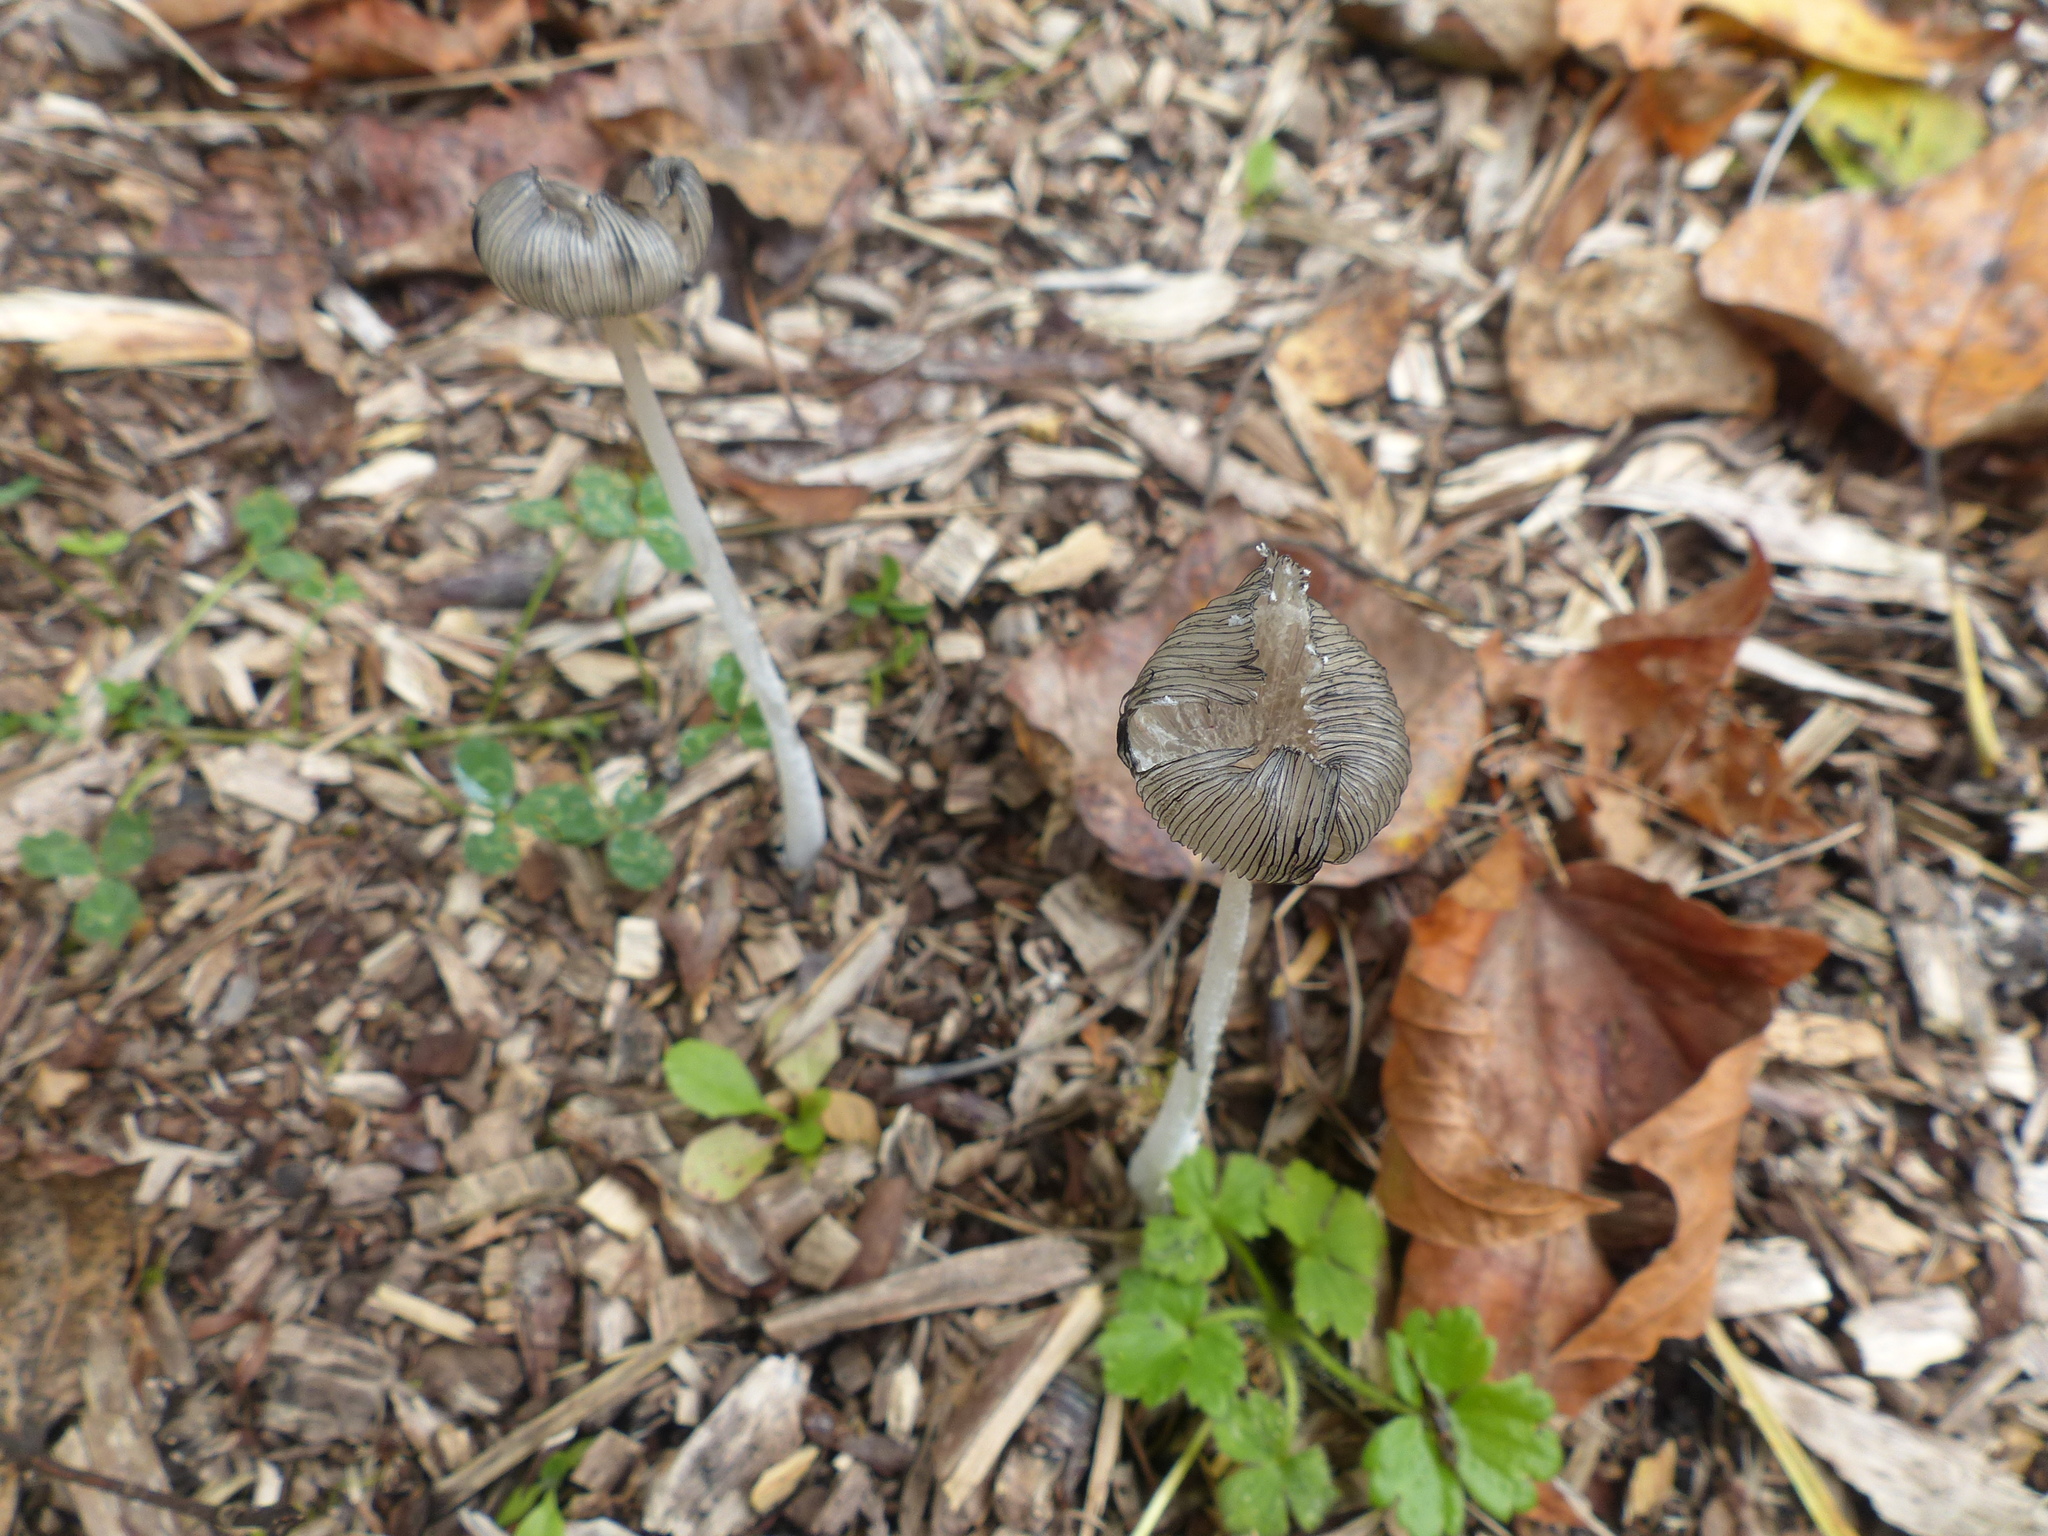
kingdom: Fungi
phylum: Basidiomycota
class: Agaricomycetes
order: Agaricales
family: Psathyrellaceae
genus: Coprinopsis
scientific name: Coprinopsis lagopus
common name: Hare'sfoot inkcap
